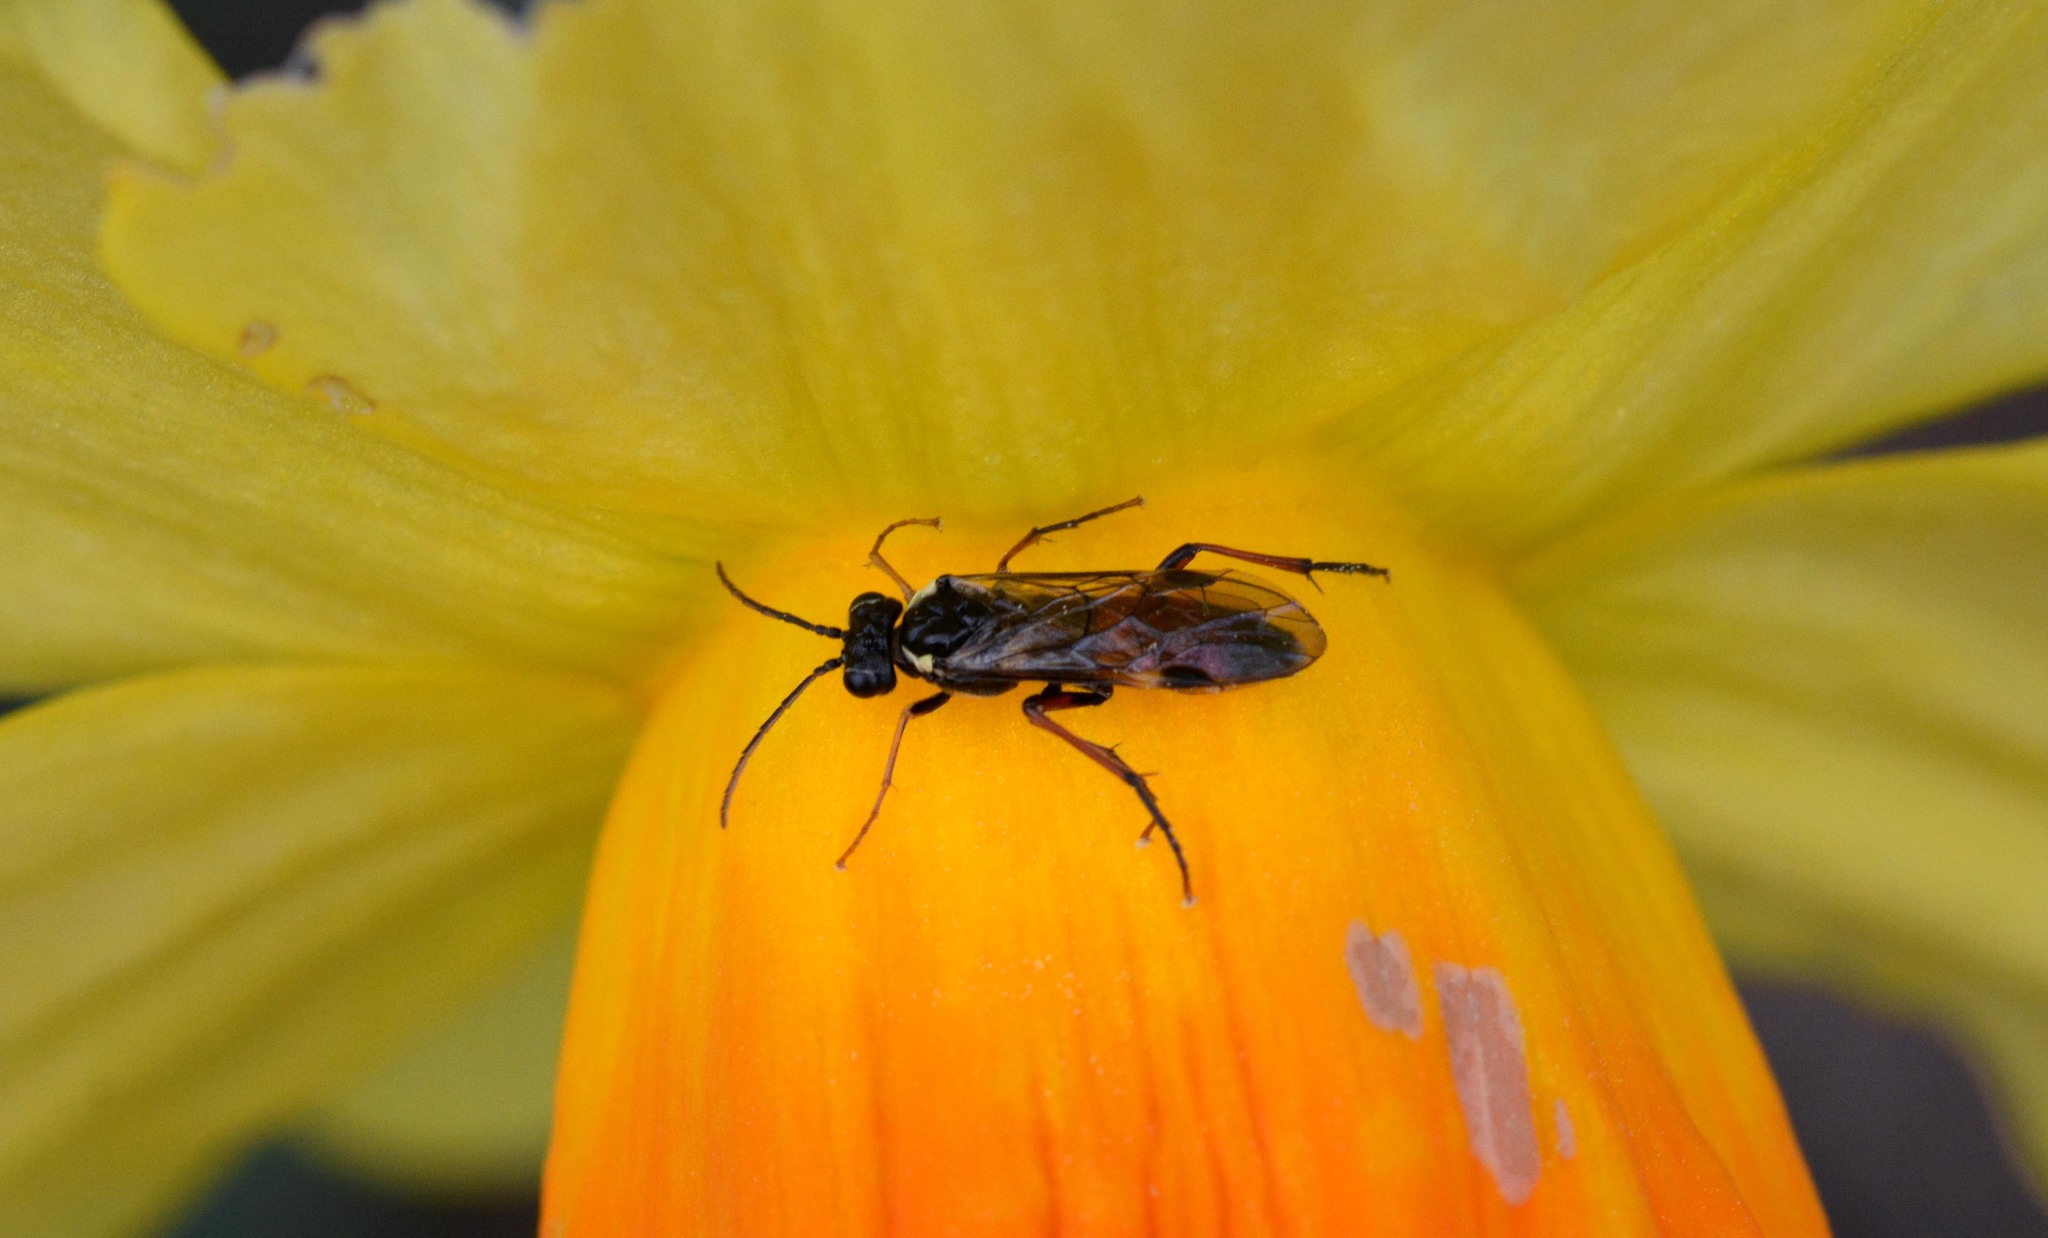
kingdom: Animalia
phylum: Arthropoda
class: Insecta
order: Hymenoptera
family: Tenthredinidae
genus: Aglaostigma
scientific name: Aglaostigma aucupariae
